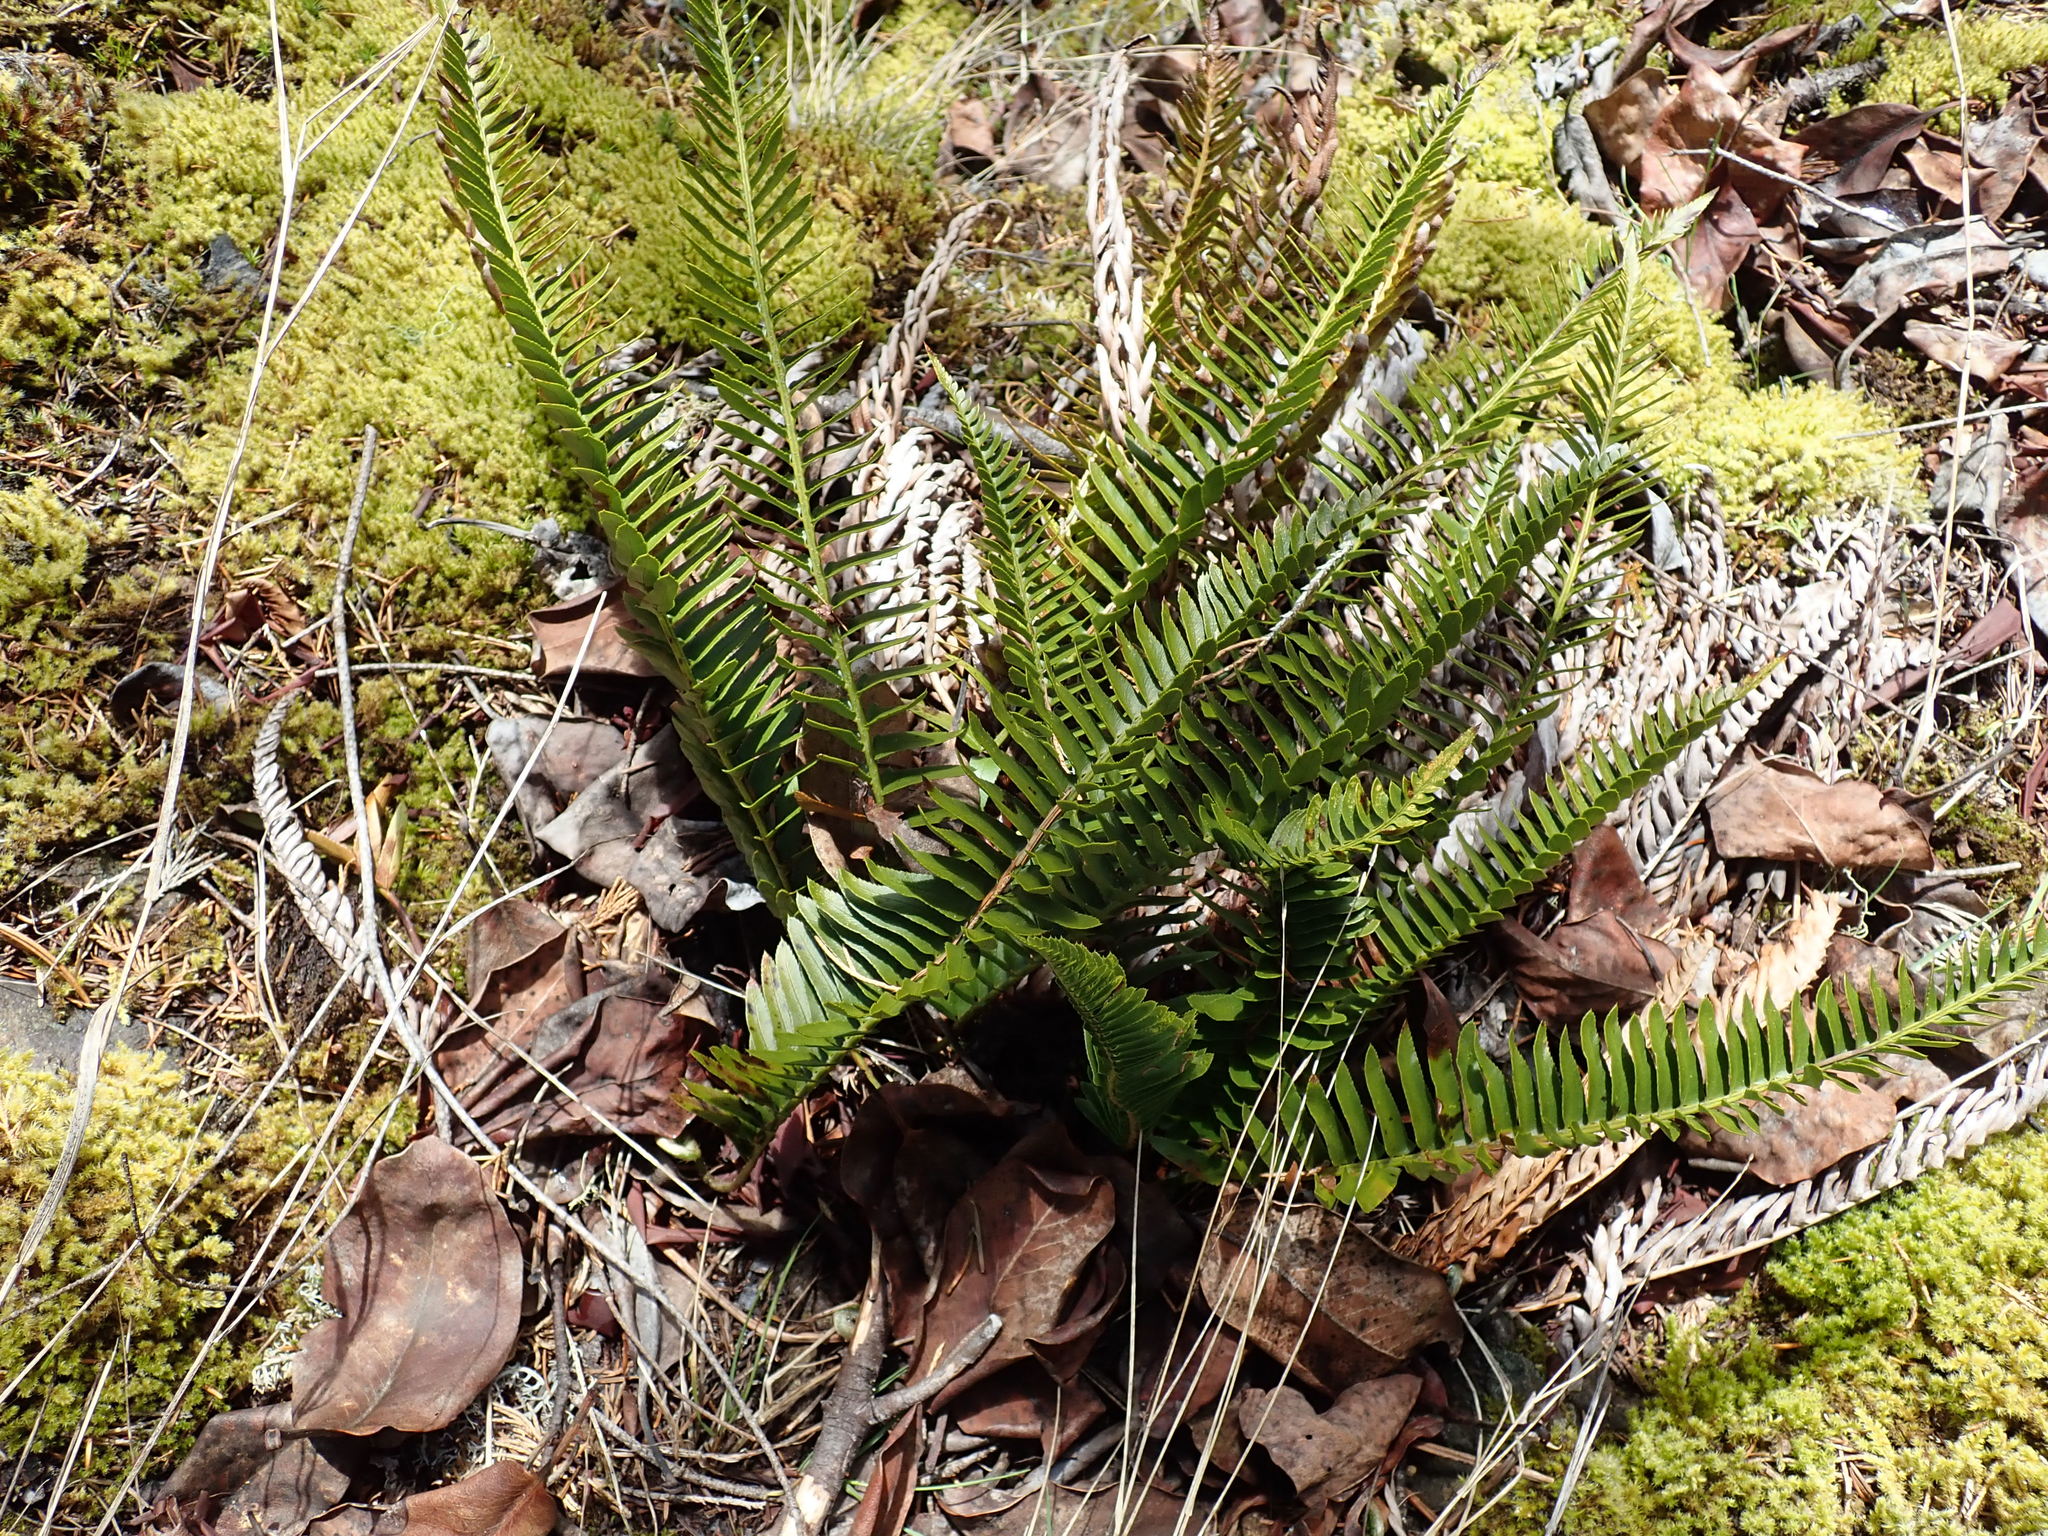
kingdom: Plantae
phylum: Tracheophyta
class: Polypodiopsida
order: Polypodiales
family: Dryopteridaceae
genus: Polystichum
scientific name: Polystichum imbricans
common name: Dwarf western sword fern
